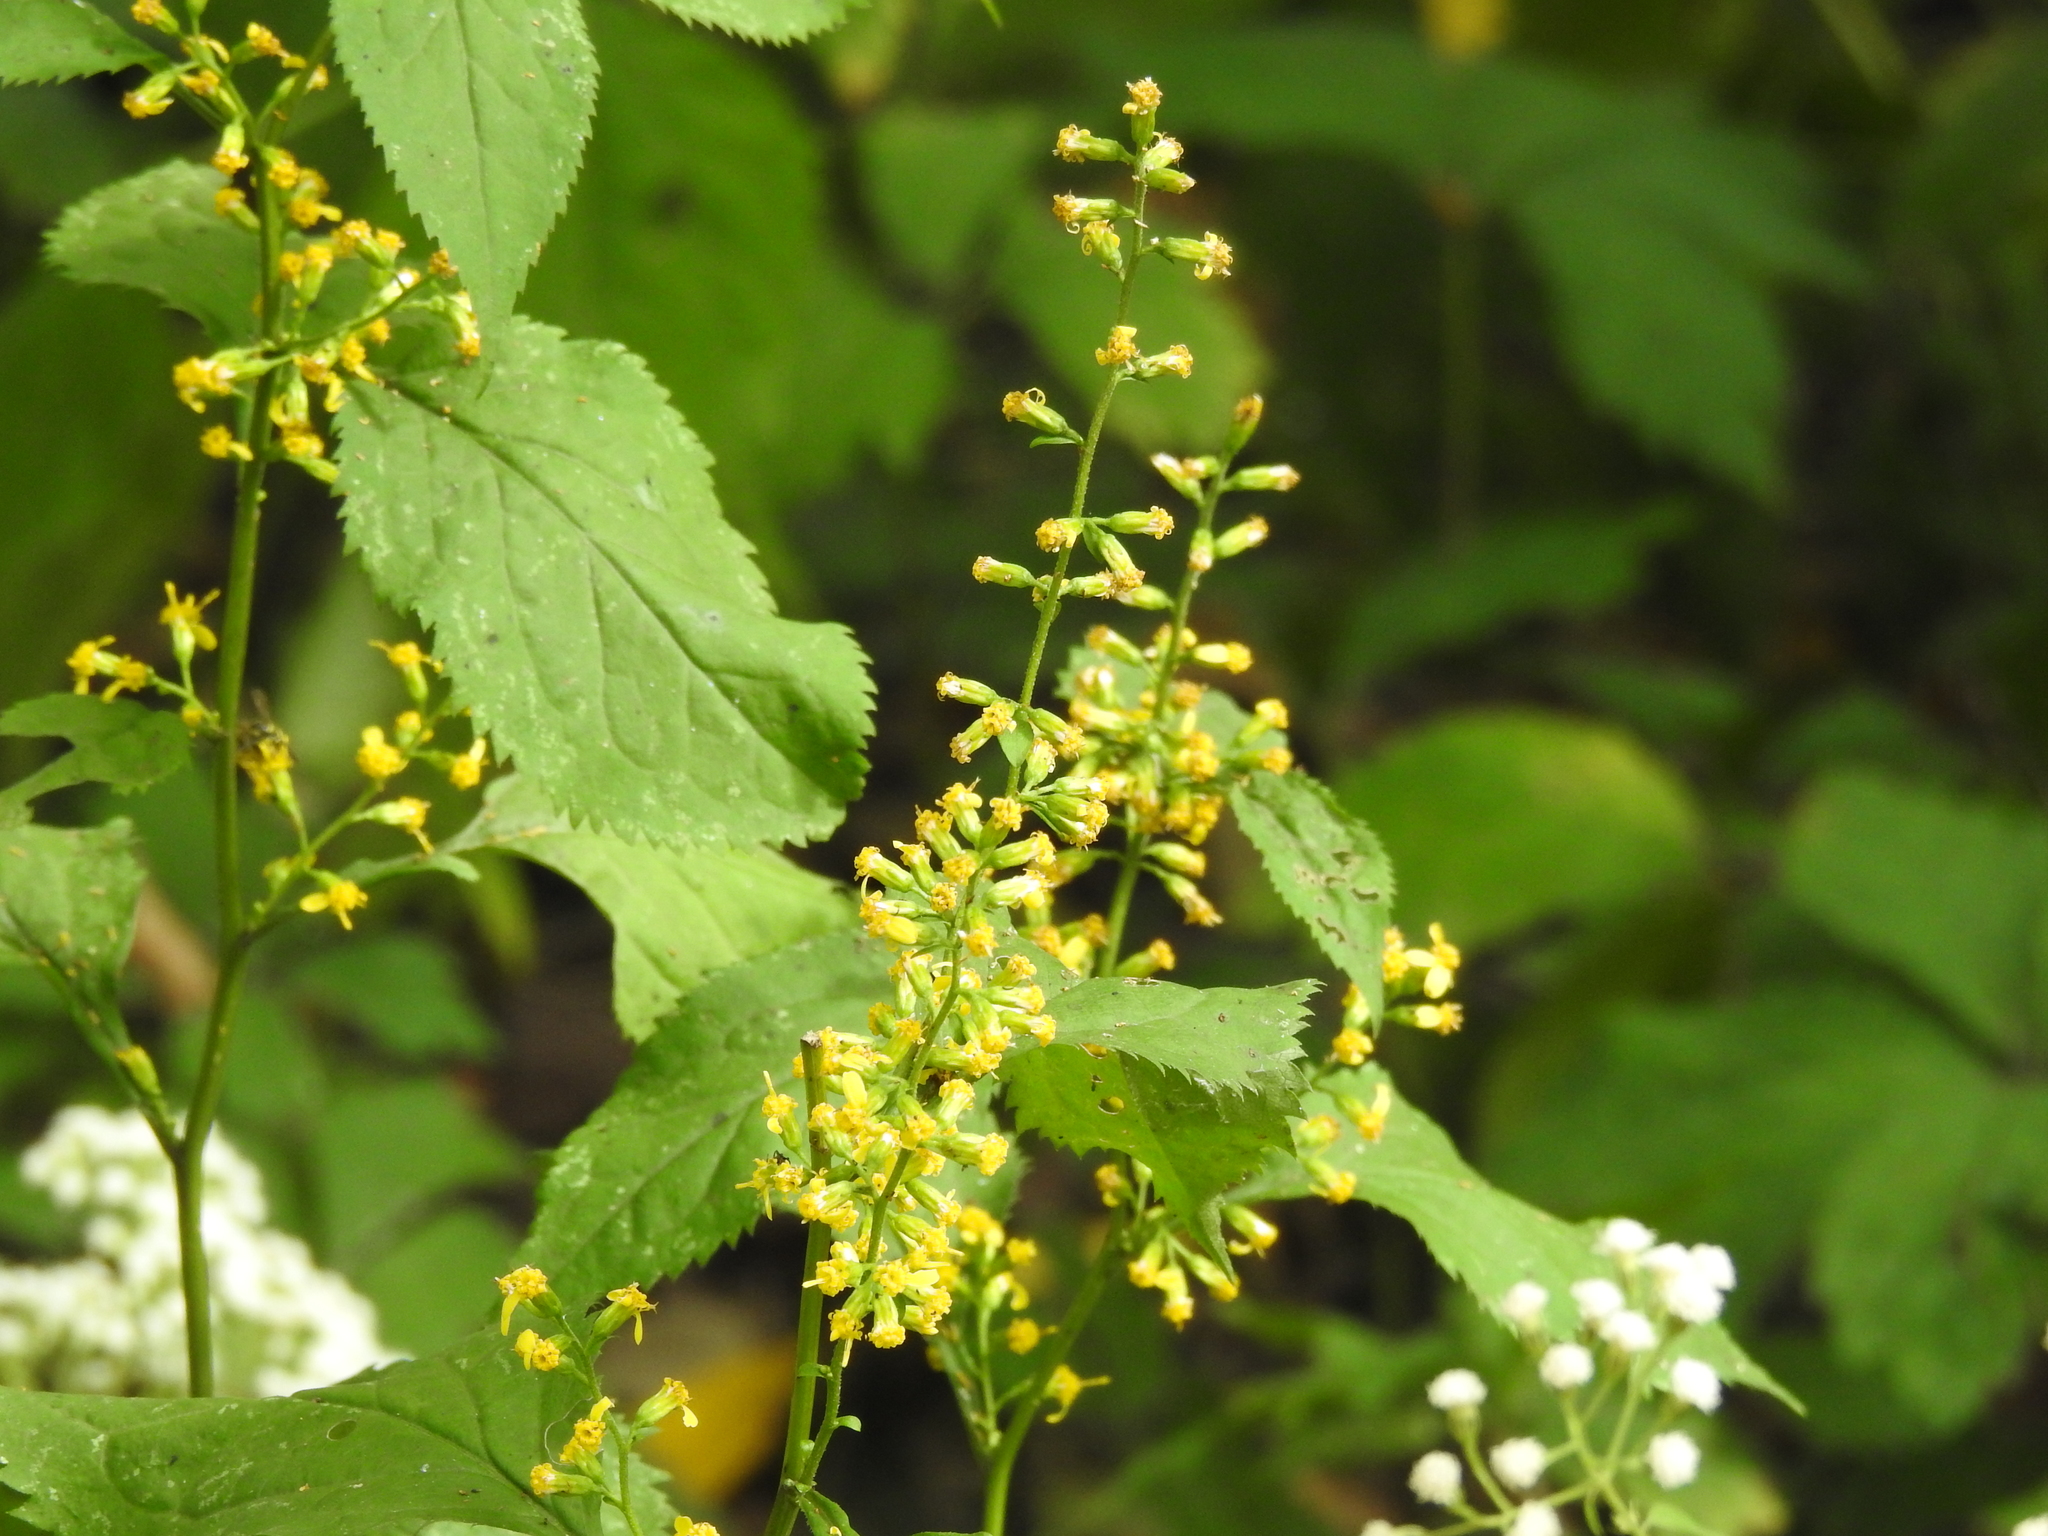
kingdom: Plantae
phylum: Tracheophyta
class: Magnoliopsida
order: Asterales
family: Asteraceae
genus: Solidago
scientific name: Solidago flexicaulis
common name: Zig-zag goldenrod
